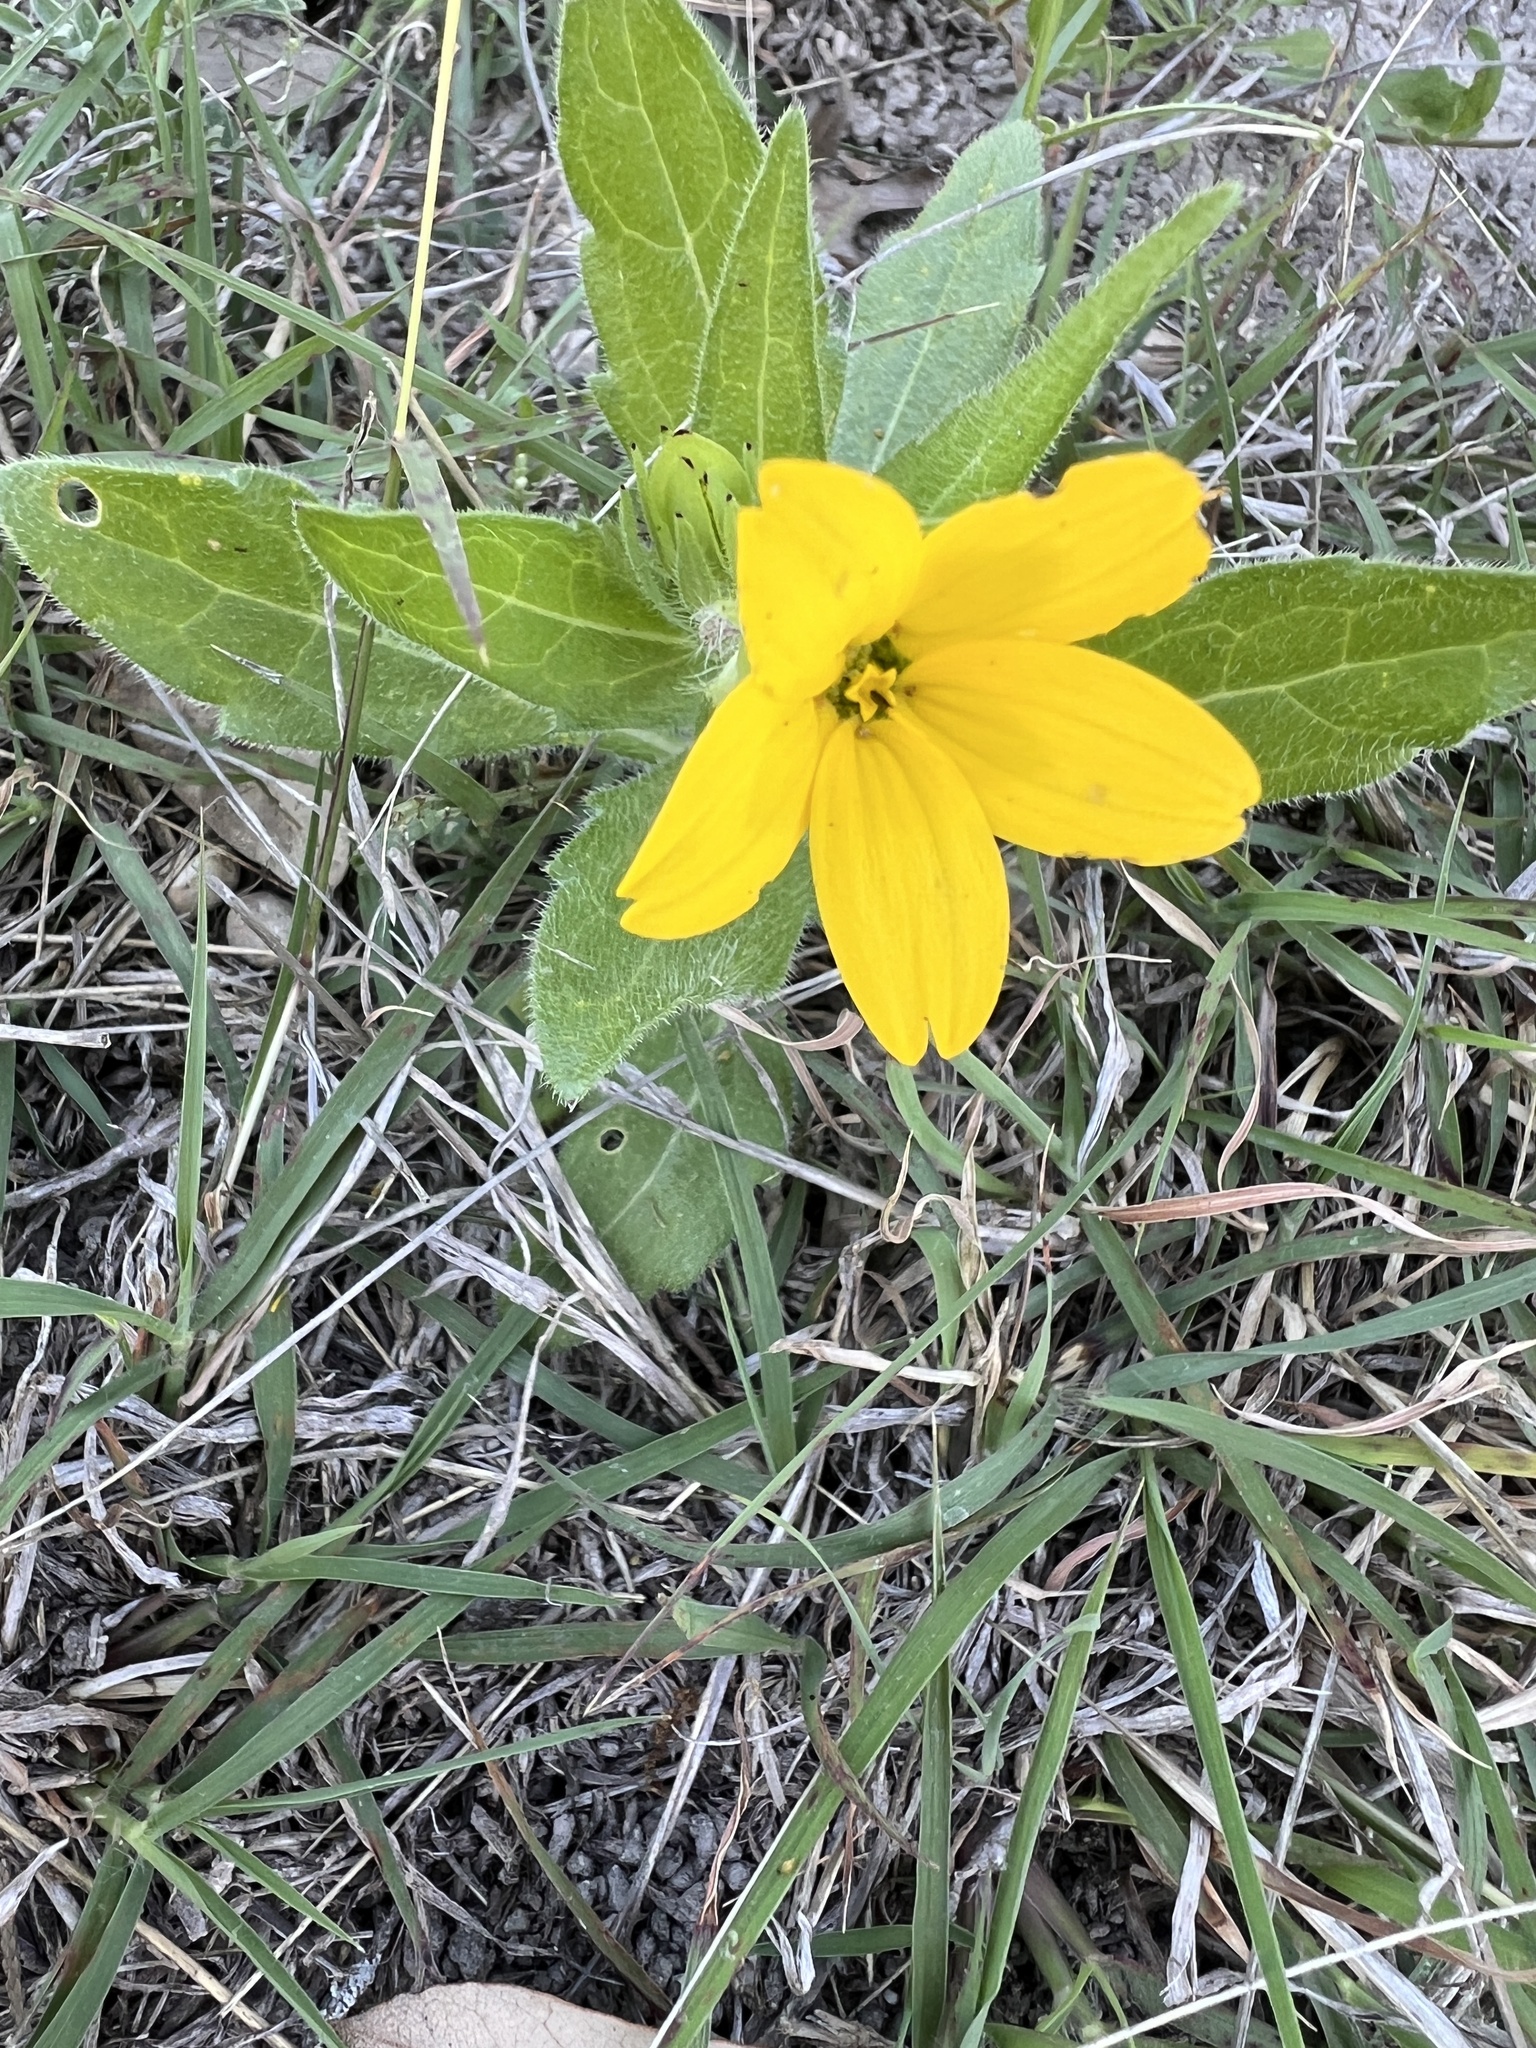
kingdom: Plantae
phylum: Tracheophyta
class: Magnoliopsida
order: Asterales
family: Asteraceae
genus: Lindheimera
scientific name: Lindheimera texana
